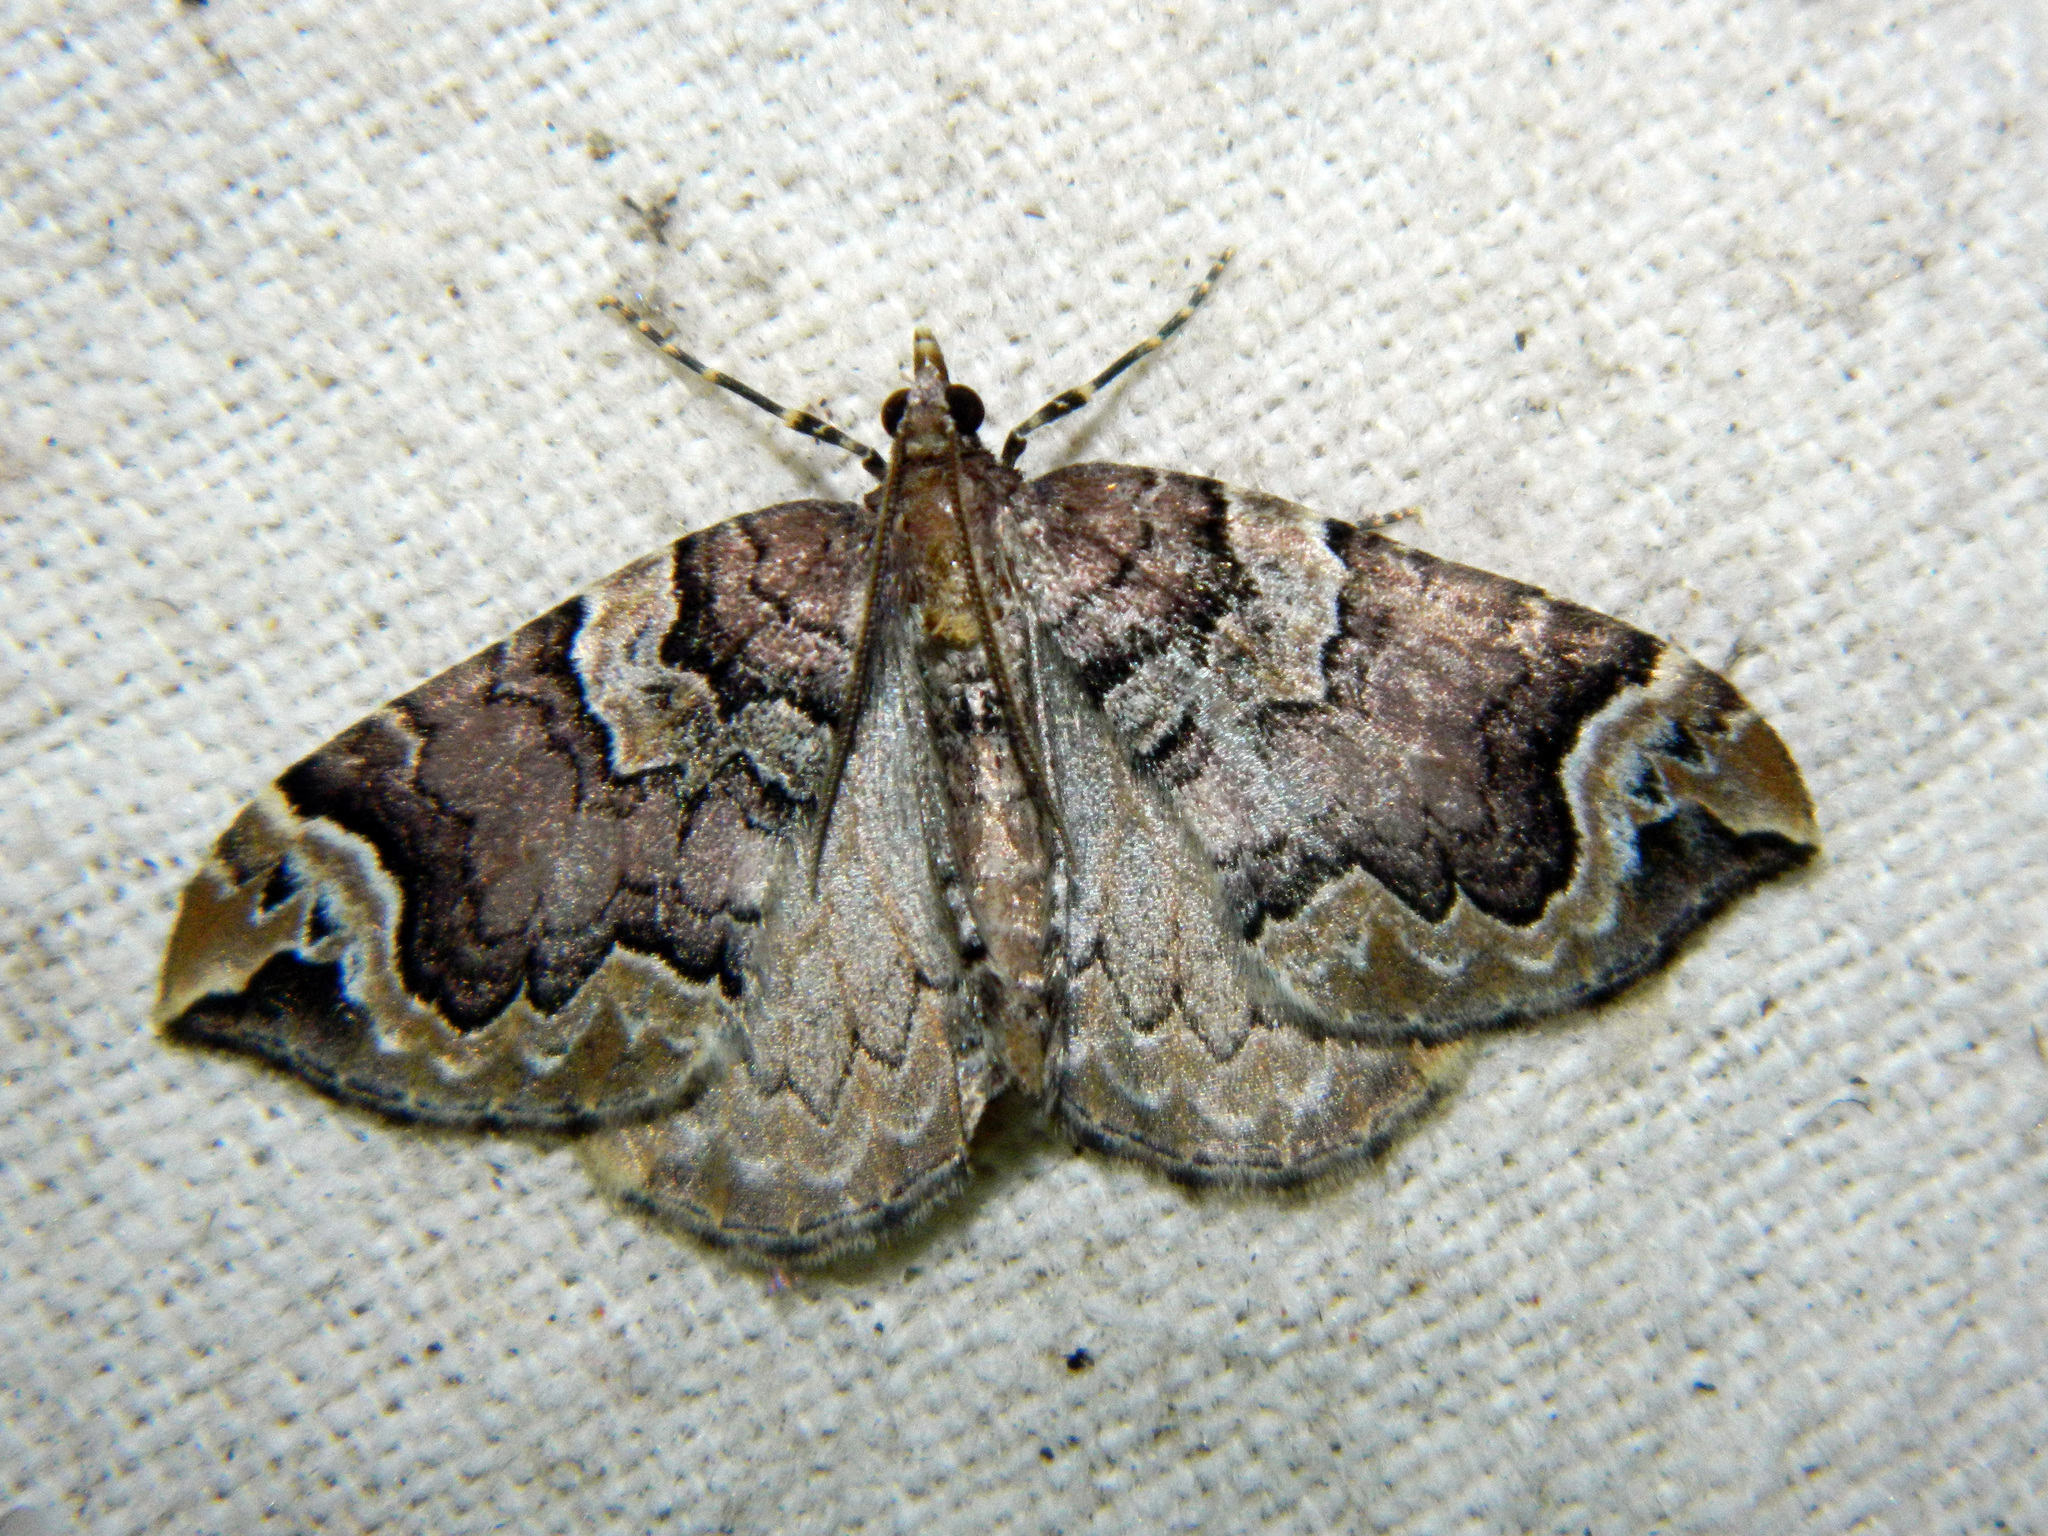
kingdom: Animalia
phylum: Arthropoda
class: Insecta
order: Lepidoptera
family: Geometridae
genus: Eulithis
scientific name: Eulithis serrataria
